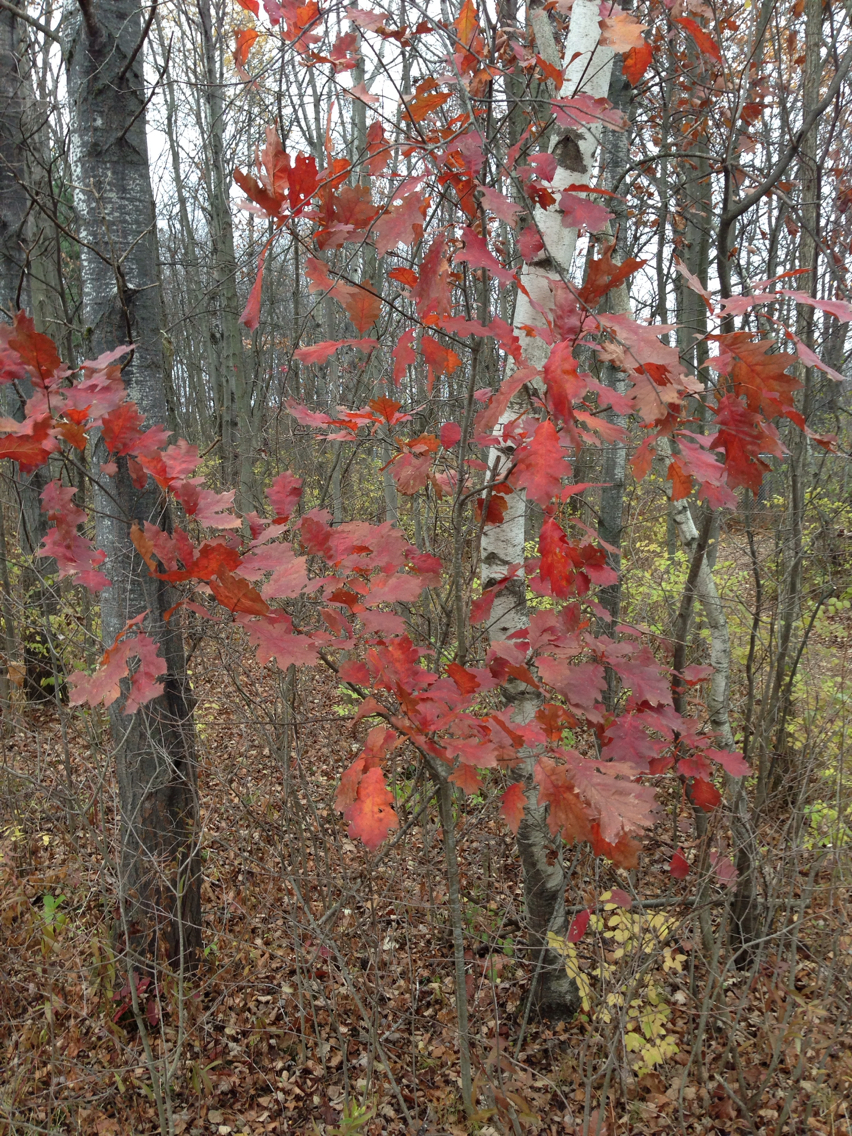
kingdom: Plantae
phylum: Tracheophyta
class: Magnoliopsida
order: Fagales
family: Fagaceae
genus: Quercus
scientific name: Quercus rubra
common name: Red oak
